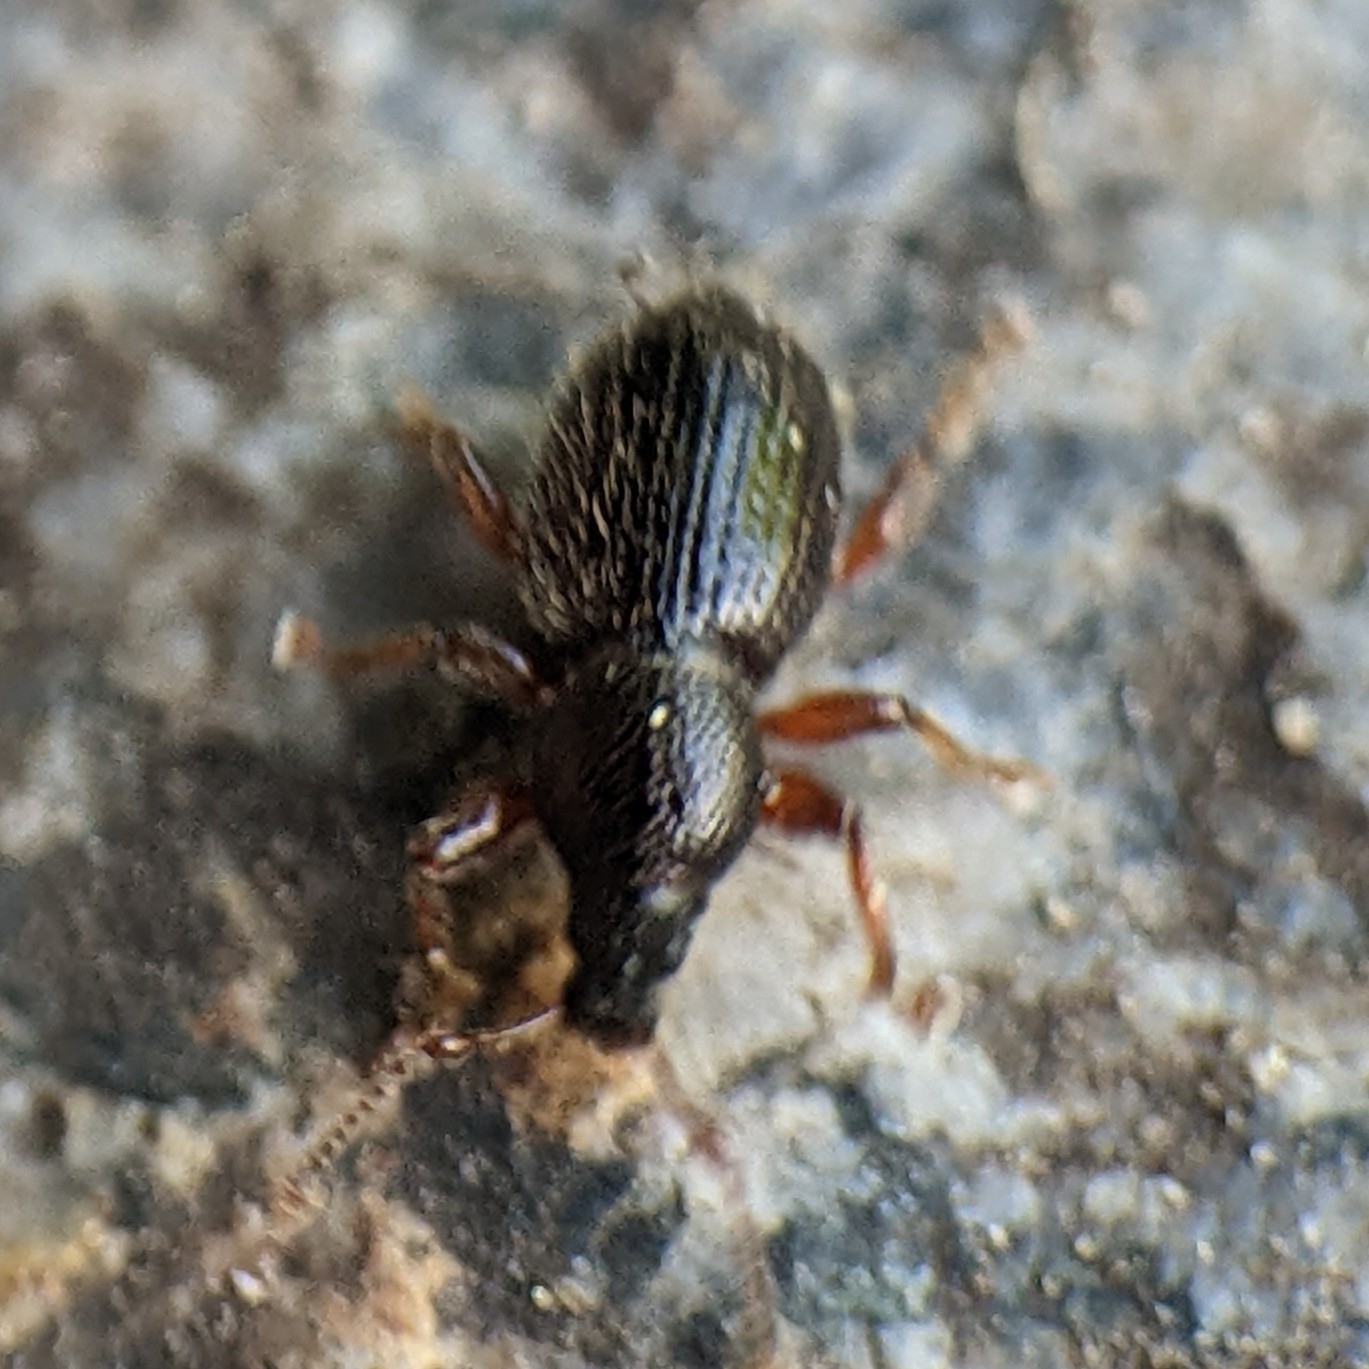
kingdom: Animalia
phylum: Arthropoda
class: Insecta
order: Coleoptera
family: Curculionidae
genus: Exomias
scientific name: Exomias pellucidus
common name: Hairy spider weevil
